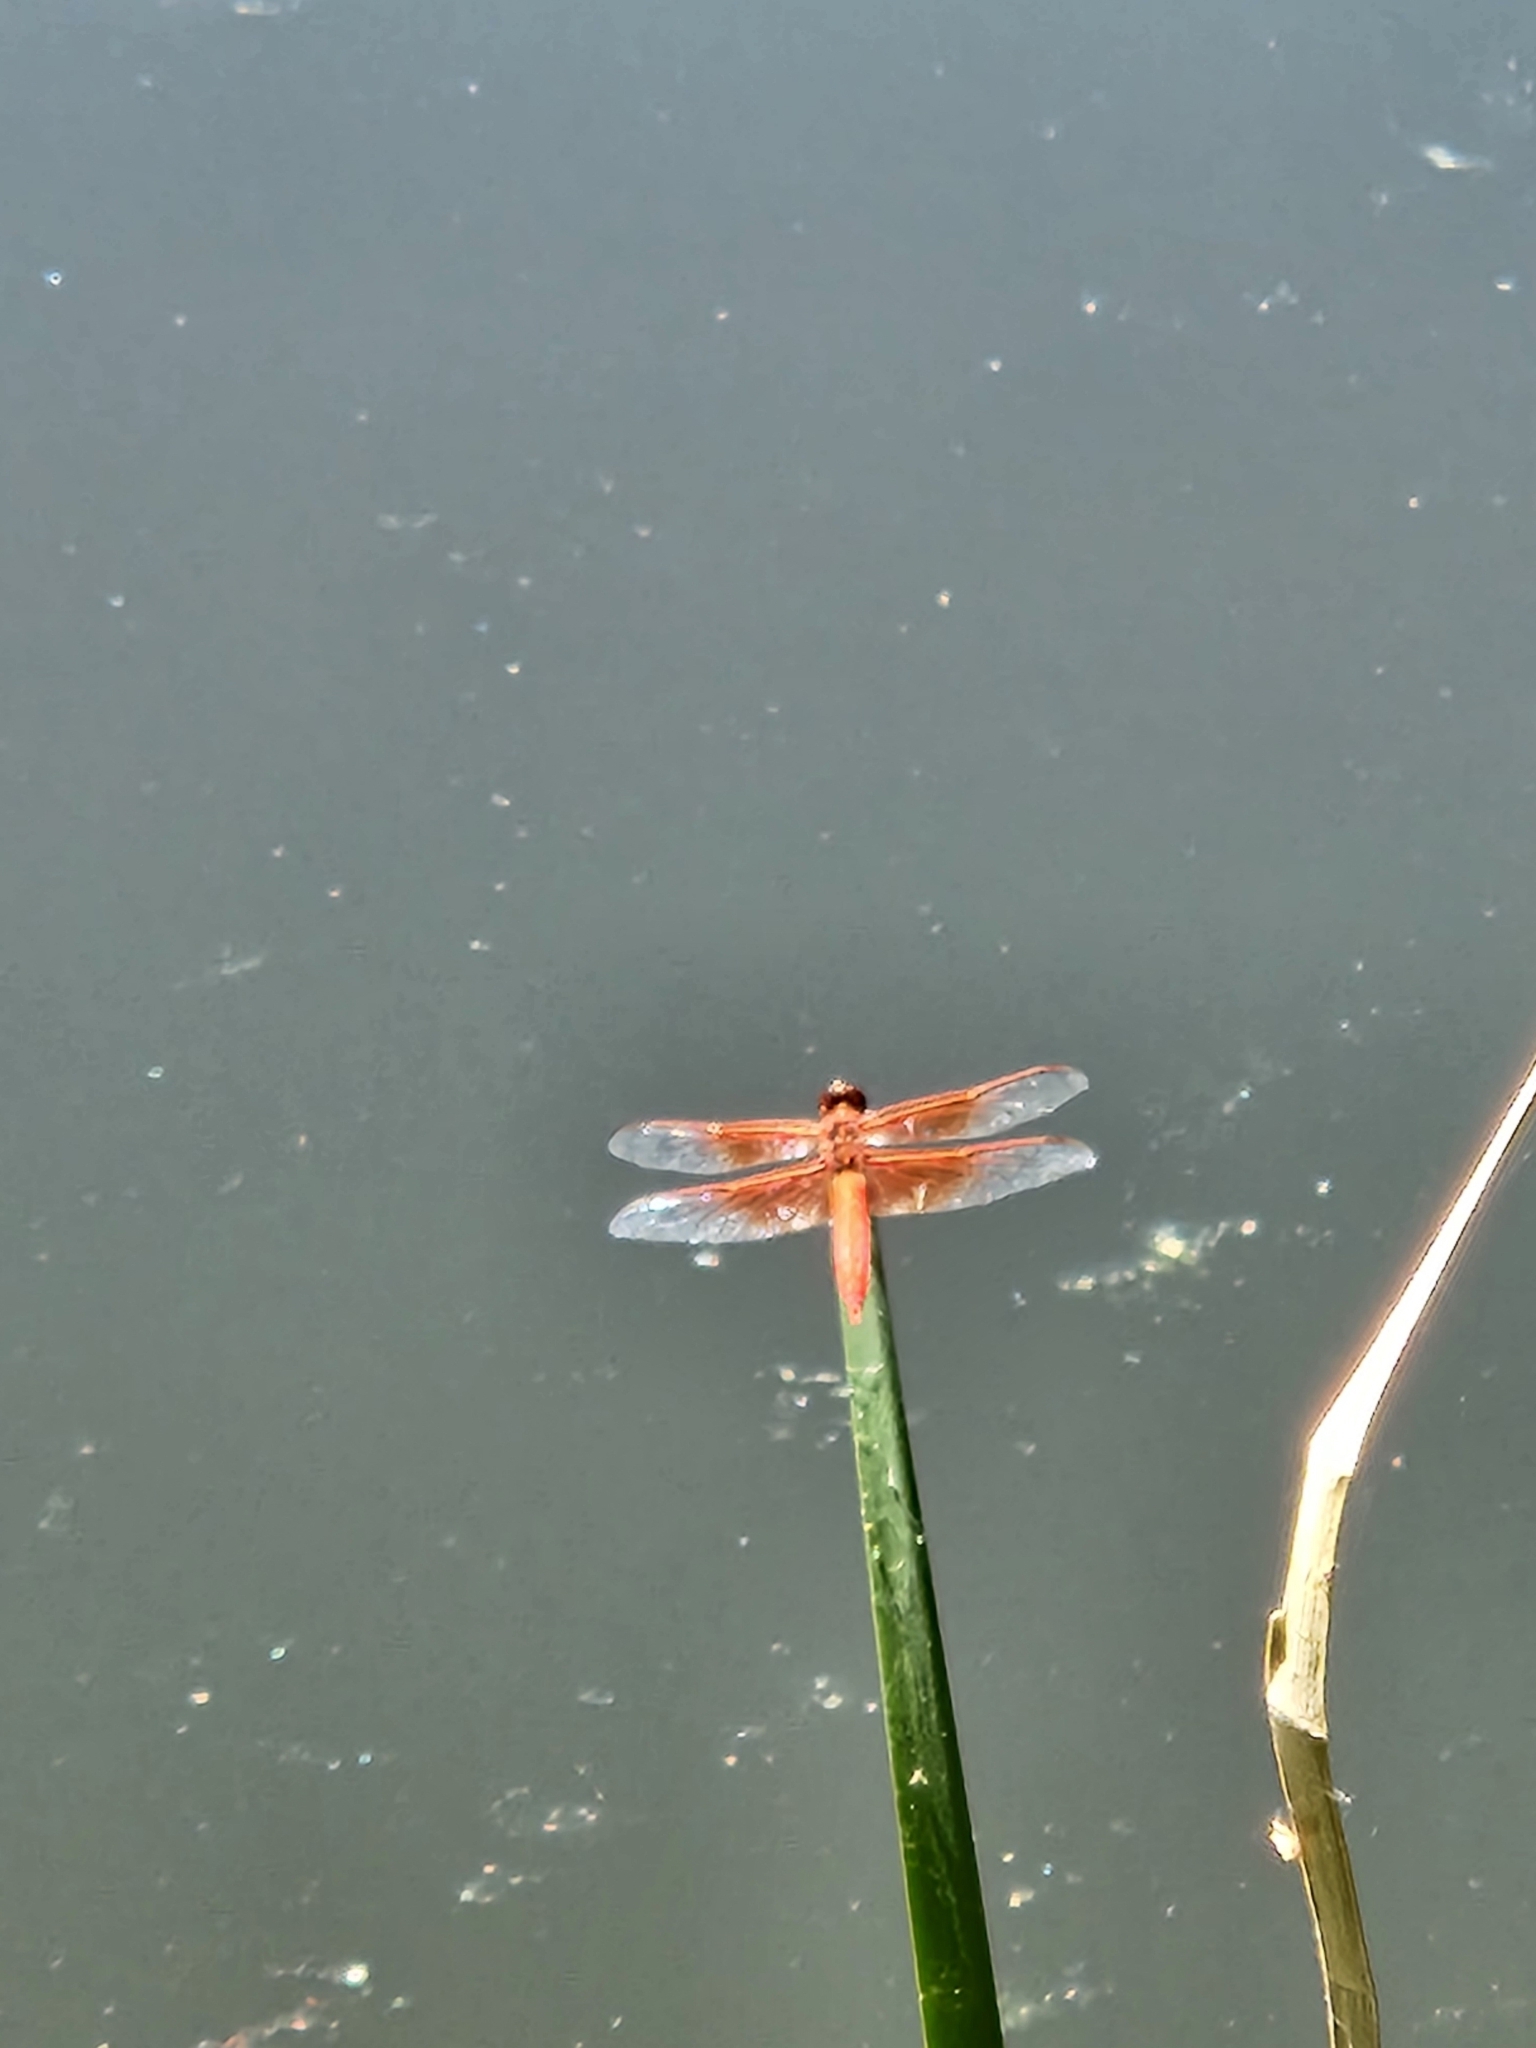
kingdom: Animalia
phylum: Arthropoda
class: Insecta
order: Odonata
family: Libellulidae
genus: Libellula
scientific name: Libellula saturata
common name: Flame skimmer
